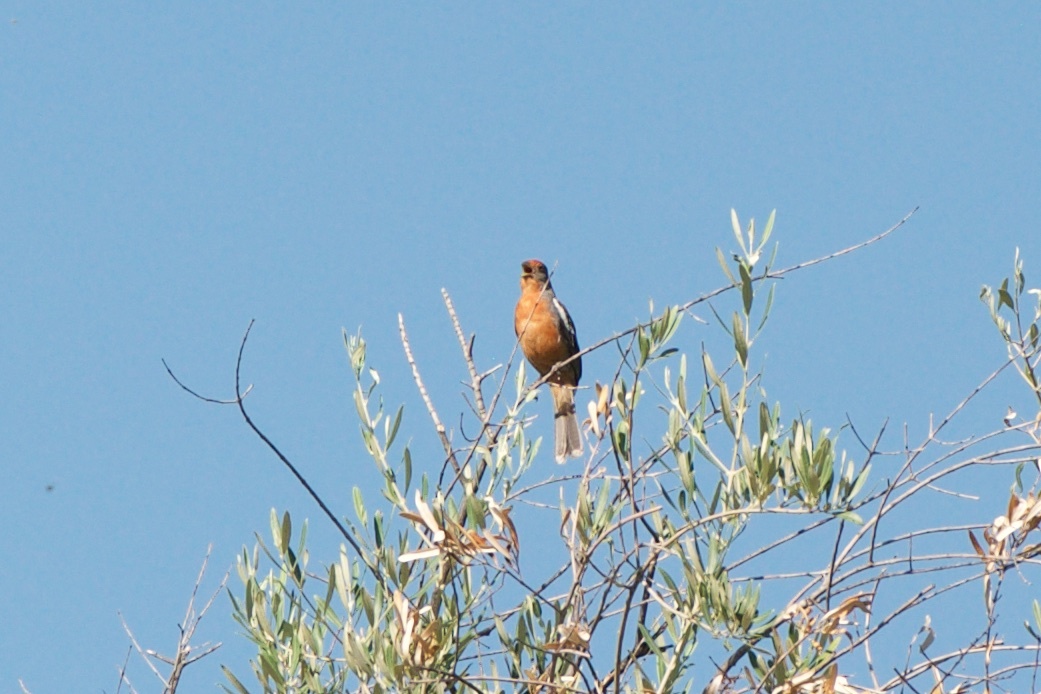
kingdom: Animalia
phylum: Chordata
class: Aves
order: Passeriformes
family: Cotingidae
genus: Phytotoma
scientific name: Phytotoma rutila
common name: White-tipped plantcutter
